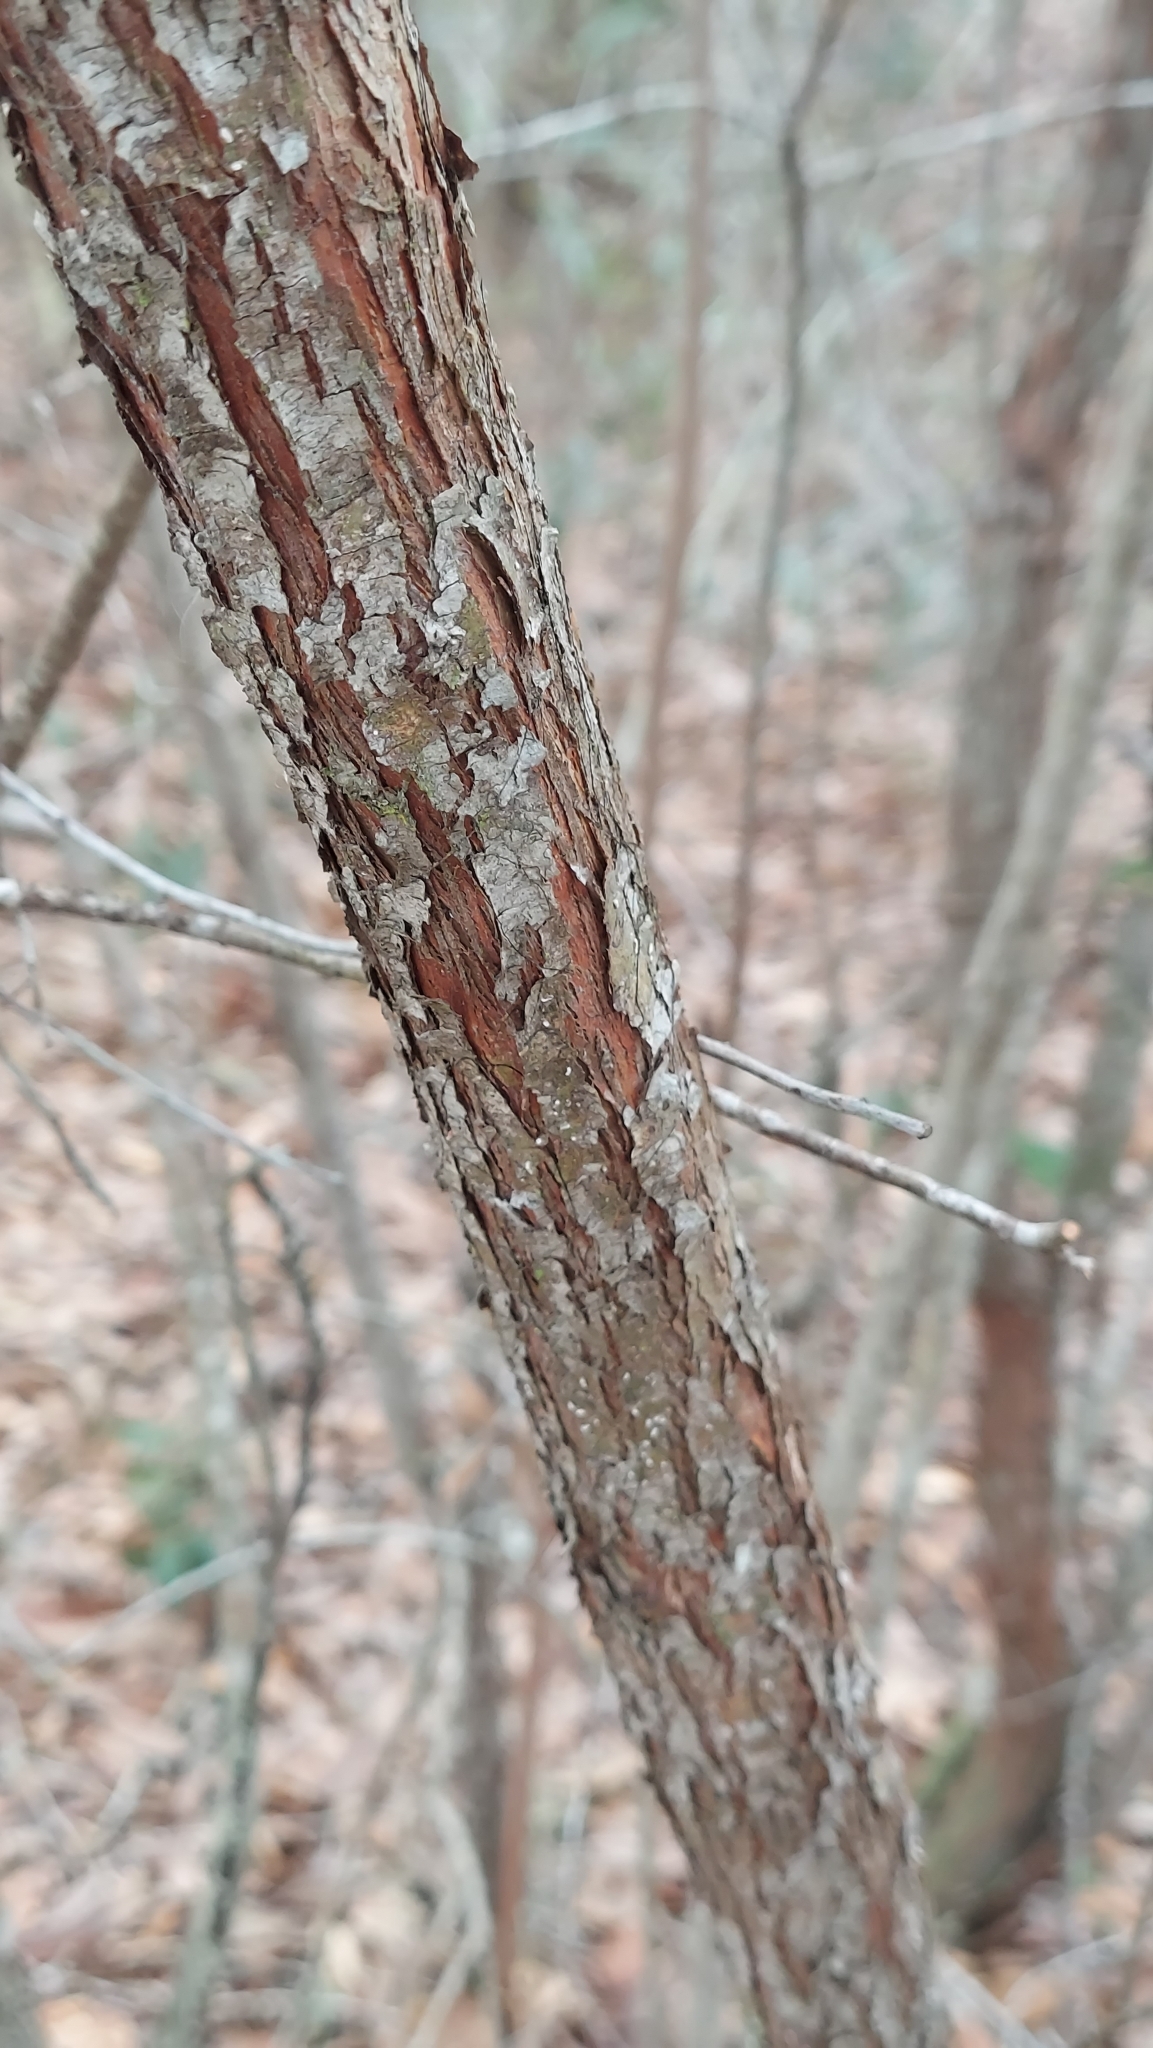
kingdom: Plantae
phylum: Tracheophyta
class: Magnoliopsida
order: Ericales
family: Ericaceae
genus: Vaccinium
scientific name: Vaccinium arboreum
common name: Farkleberry
